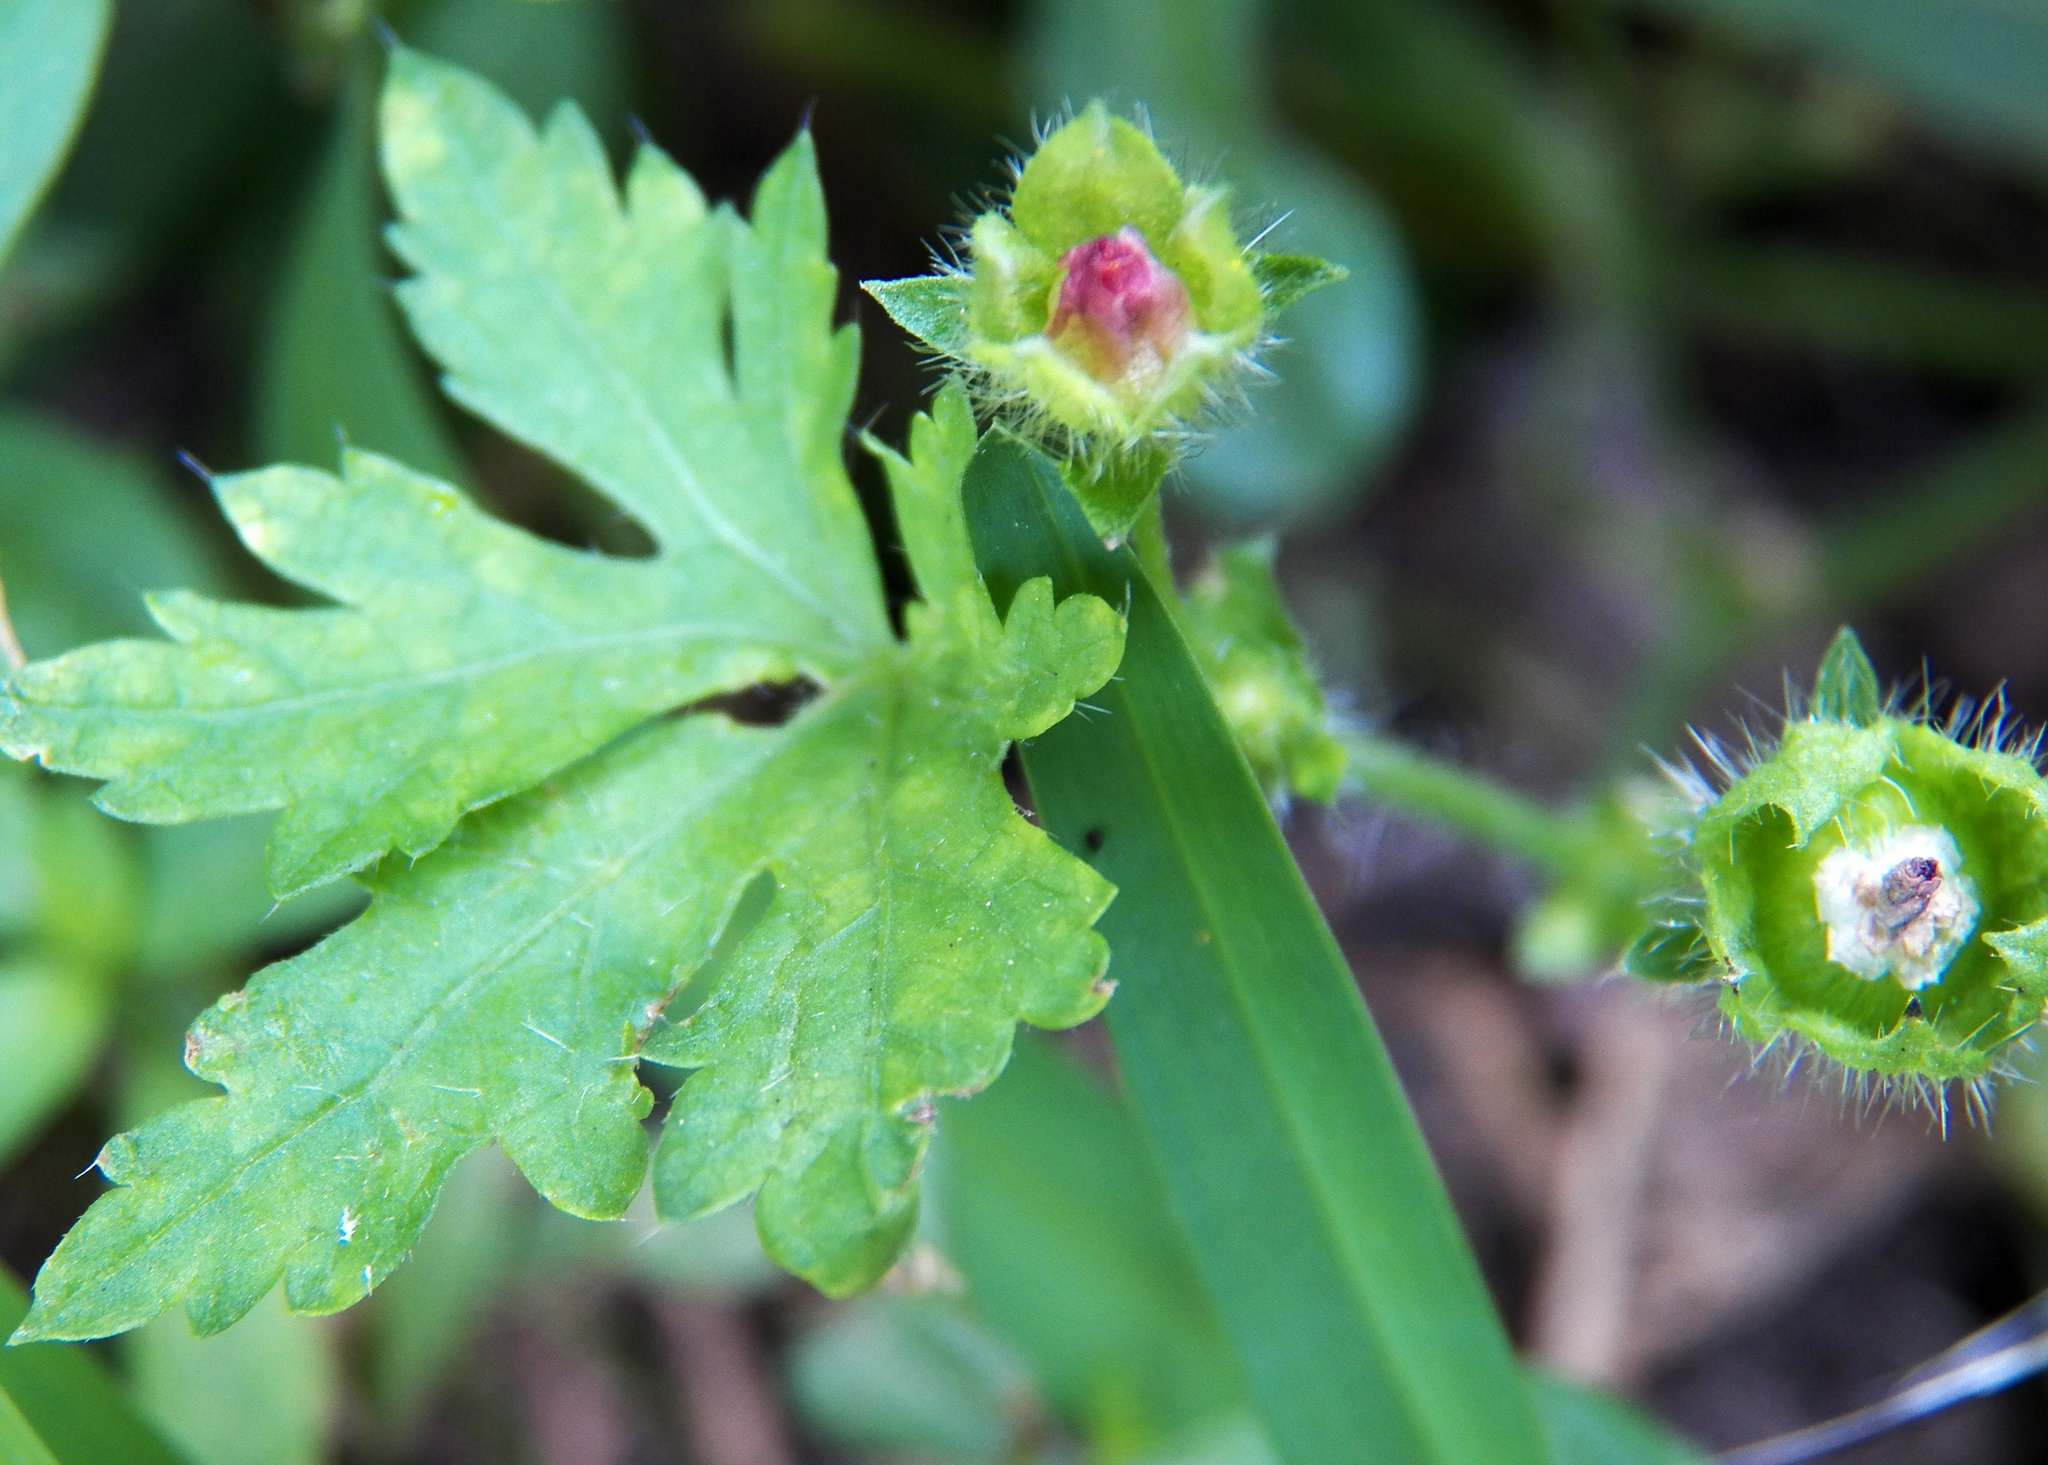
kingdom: Plantae
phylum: Tracheophyta
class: Magnoliopsida
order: Malvales
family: Malvaceae
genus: Modiola
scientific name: Modiola caroliniana
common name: Carolina bristlemallow
